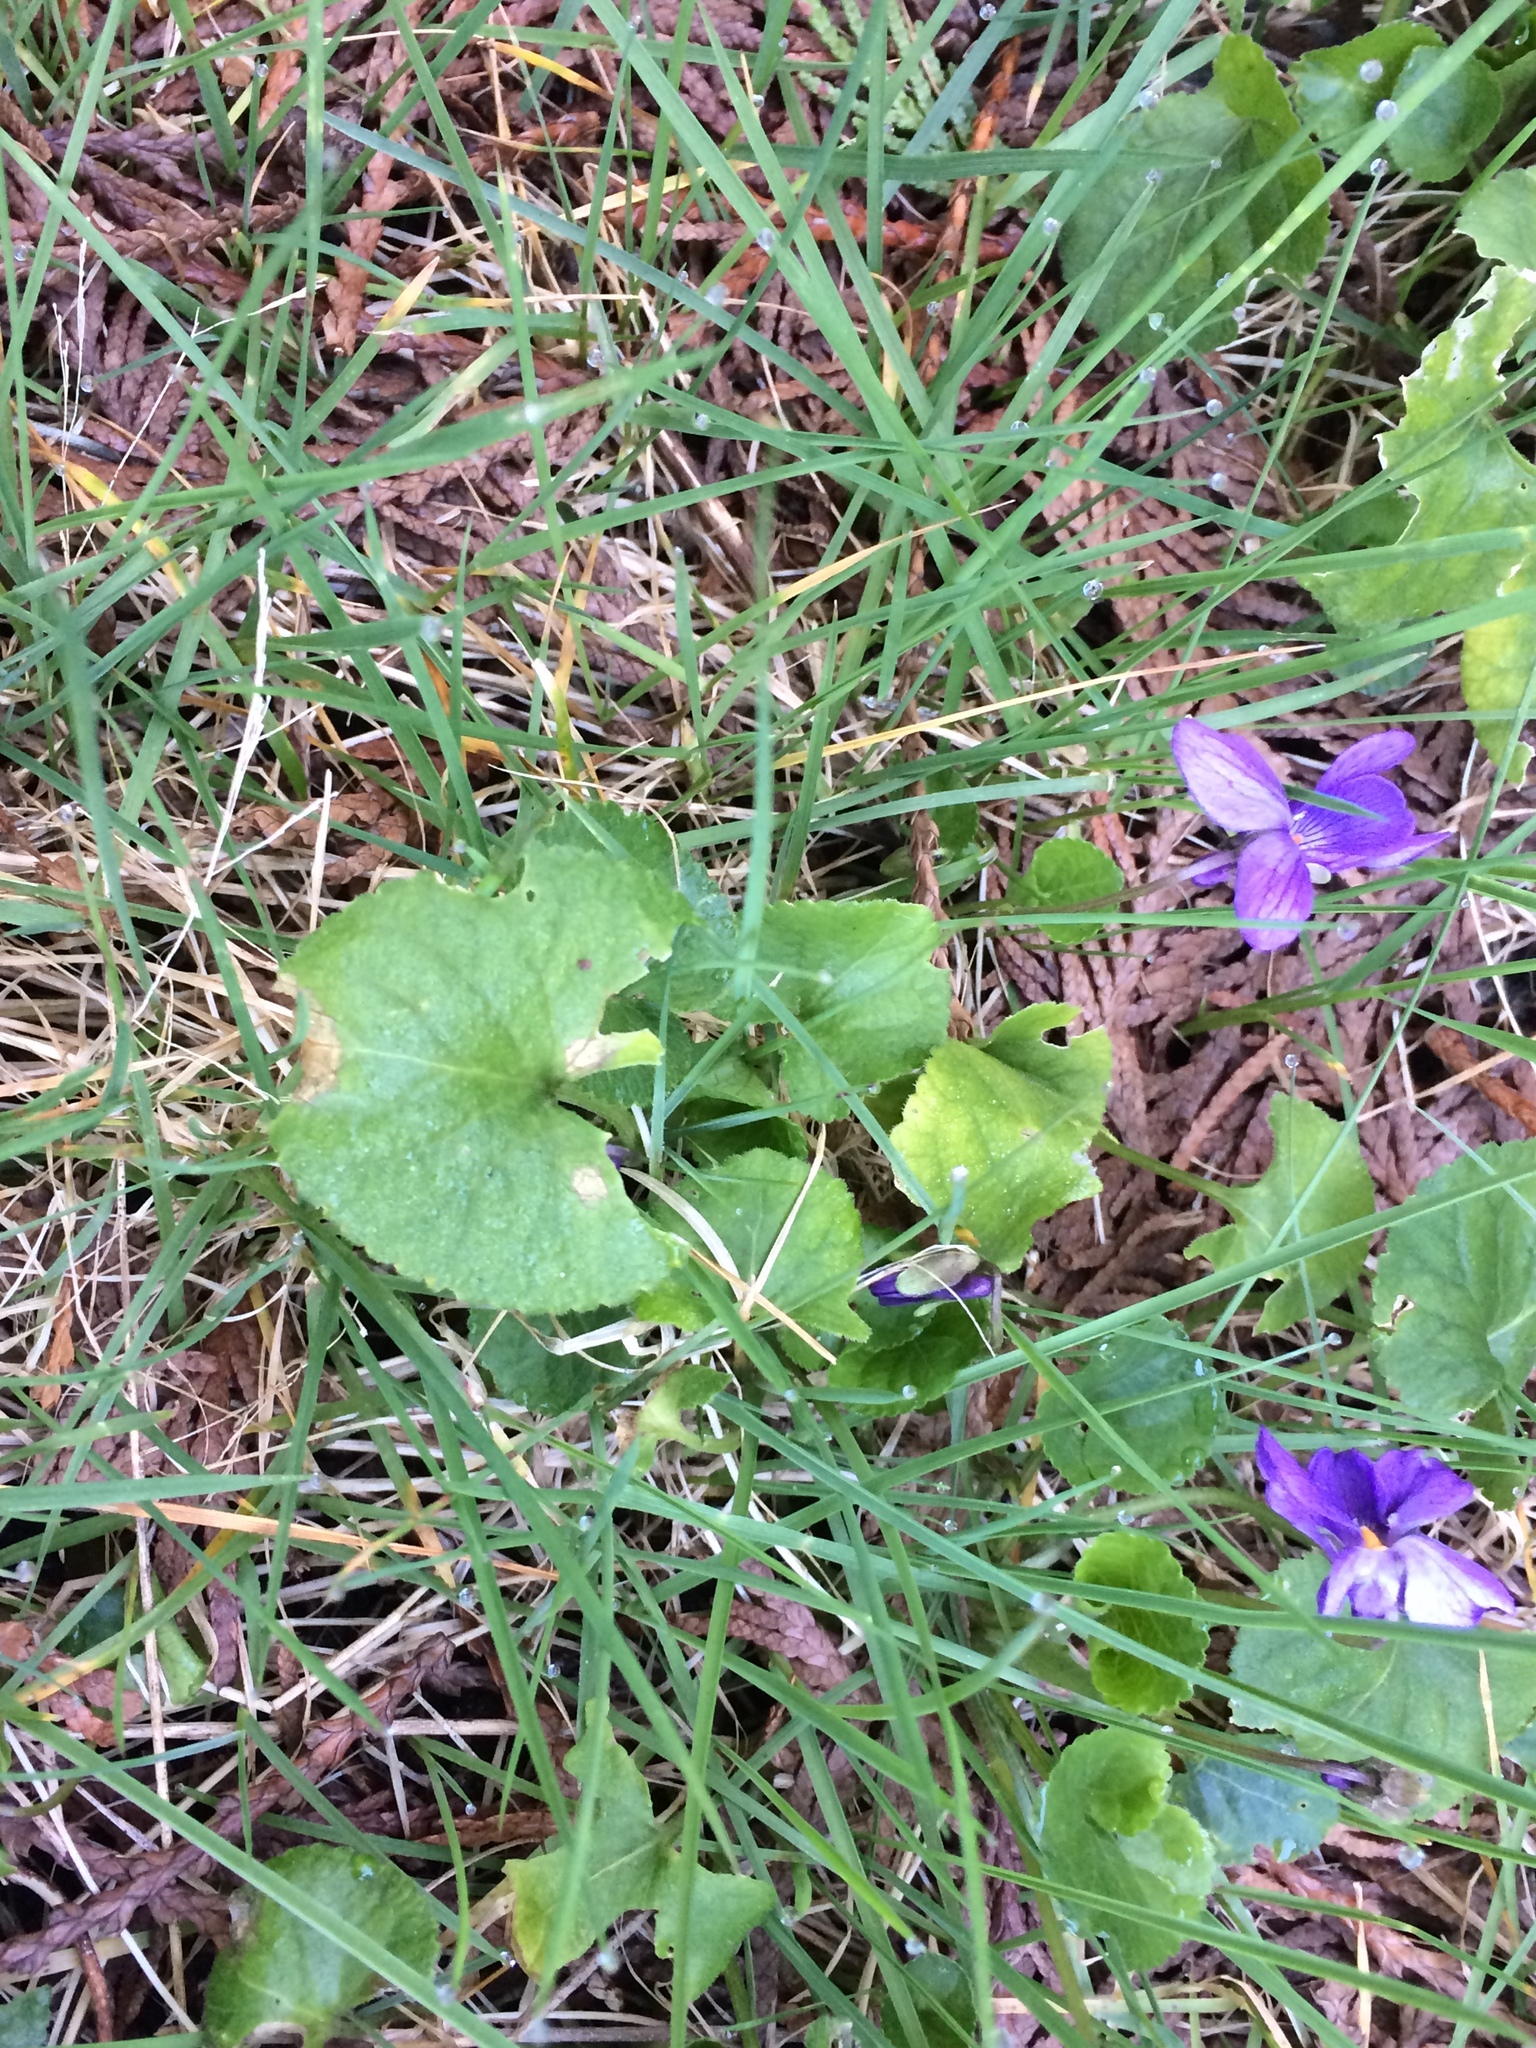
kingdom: Plantae
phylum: Tracheophyta
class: Magnoliopsida
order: Malpighiales
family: Violaceae
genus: Viola
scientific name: Viola odorata
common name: Sweet violet
